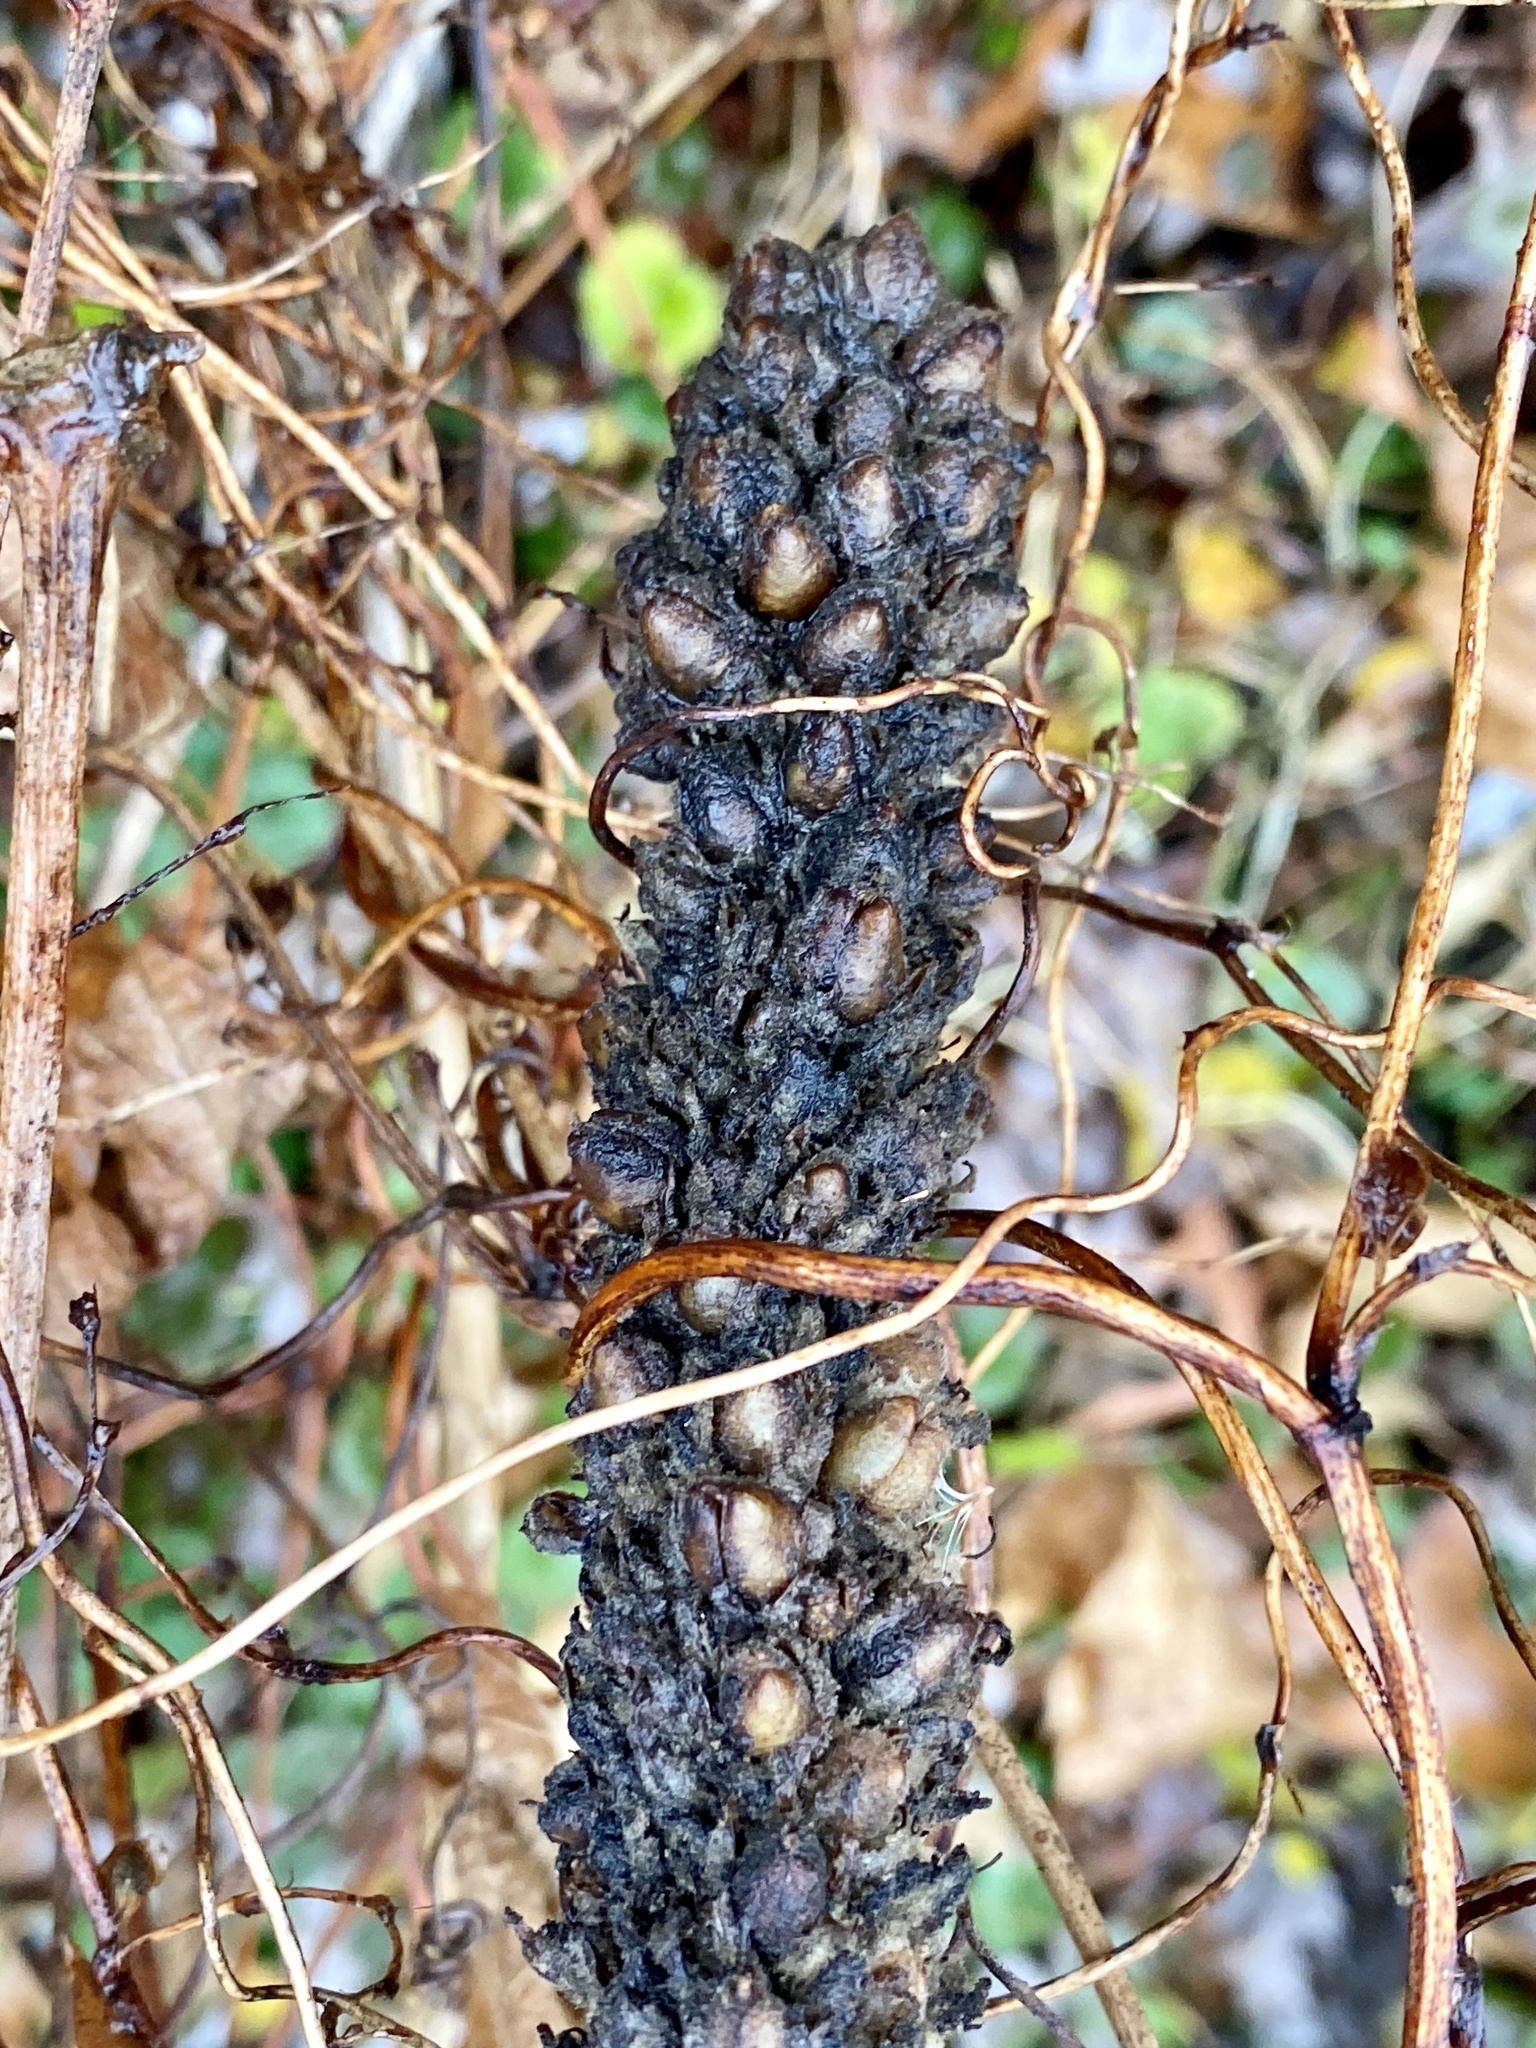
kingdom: Plantae
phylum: Tracheophyta
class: Magnoliopsida
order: Lamiales
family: Scrophulariaceae
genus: Verbascum
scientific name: Verbascum thapsus
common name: Common mullein
